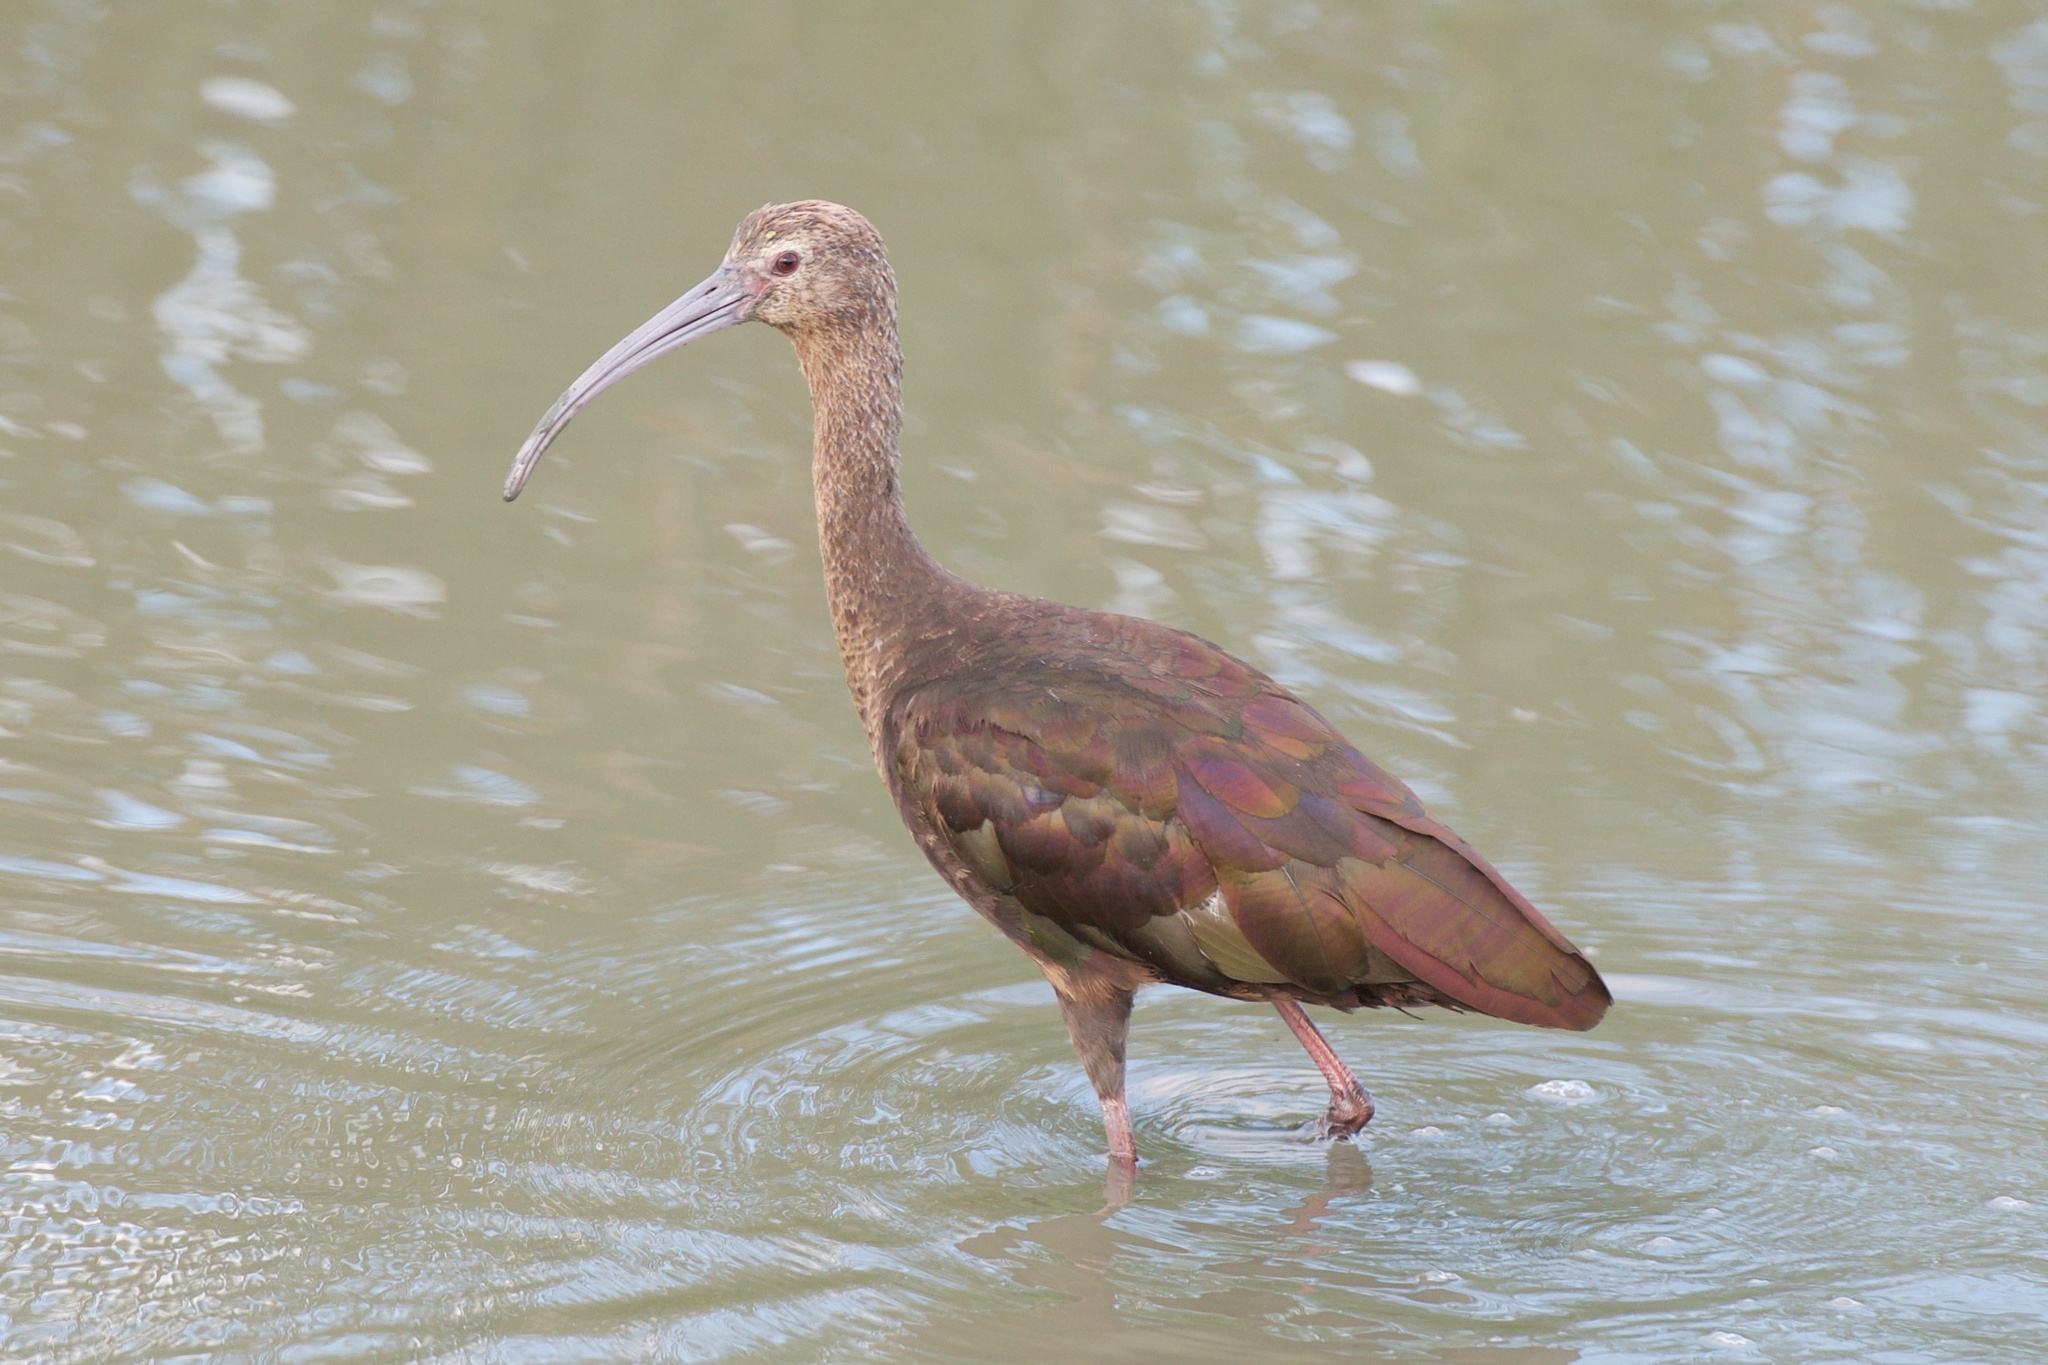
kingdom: Animalia
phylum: Chordata
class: Aves
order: Pelecaniformes
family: Threskiornithidae
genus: Plegadis
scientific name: Plegadis chihi
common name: White-faced ibis
